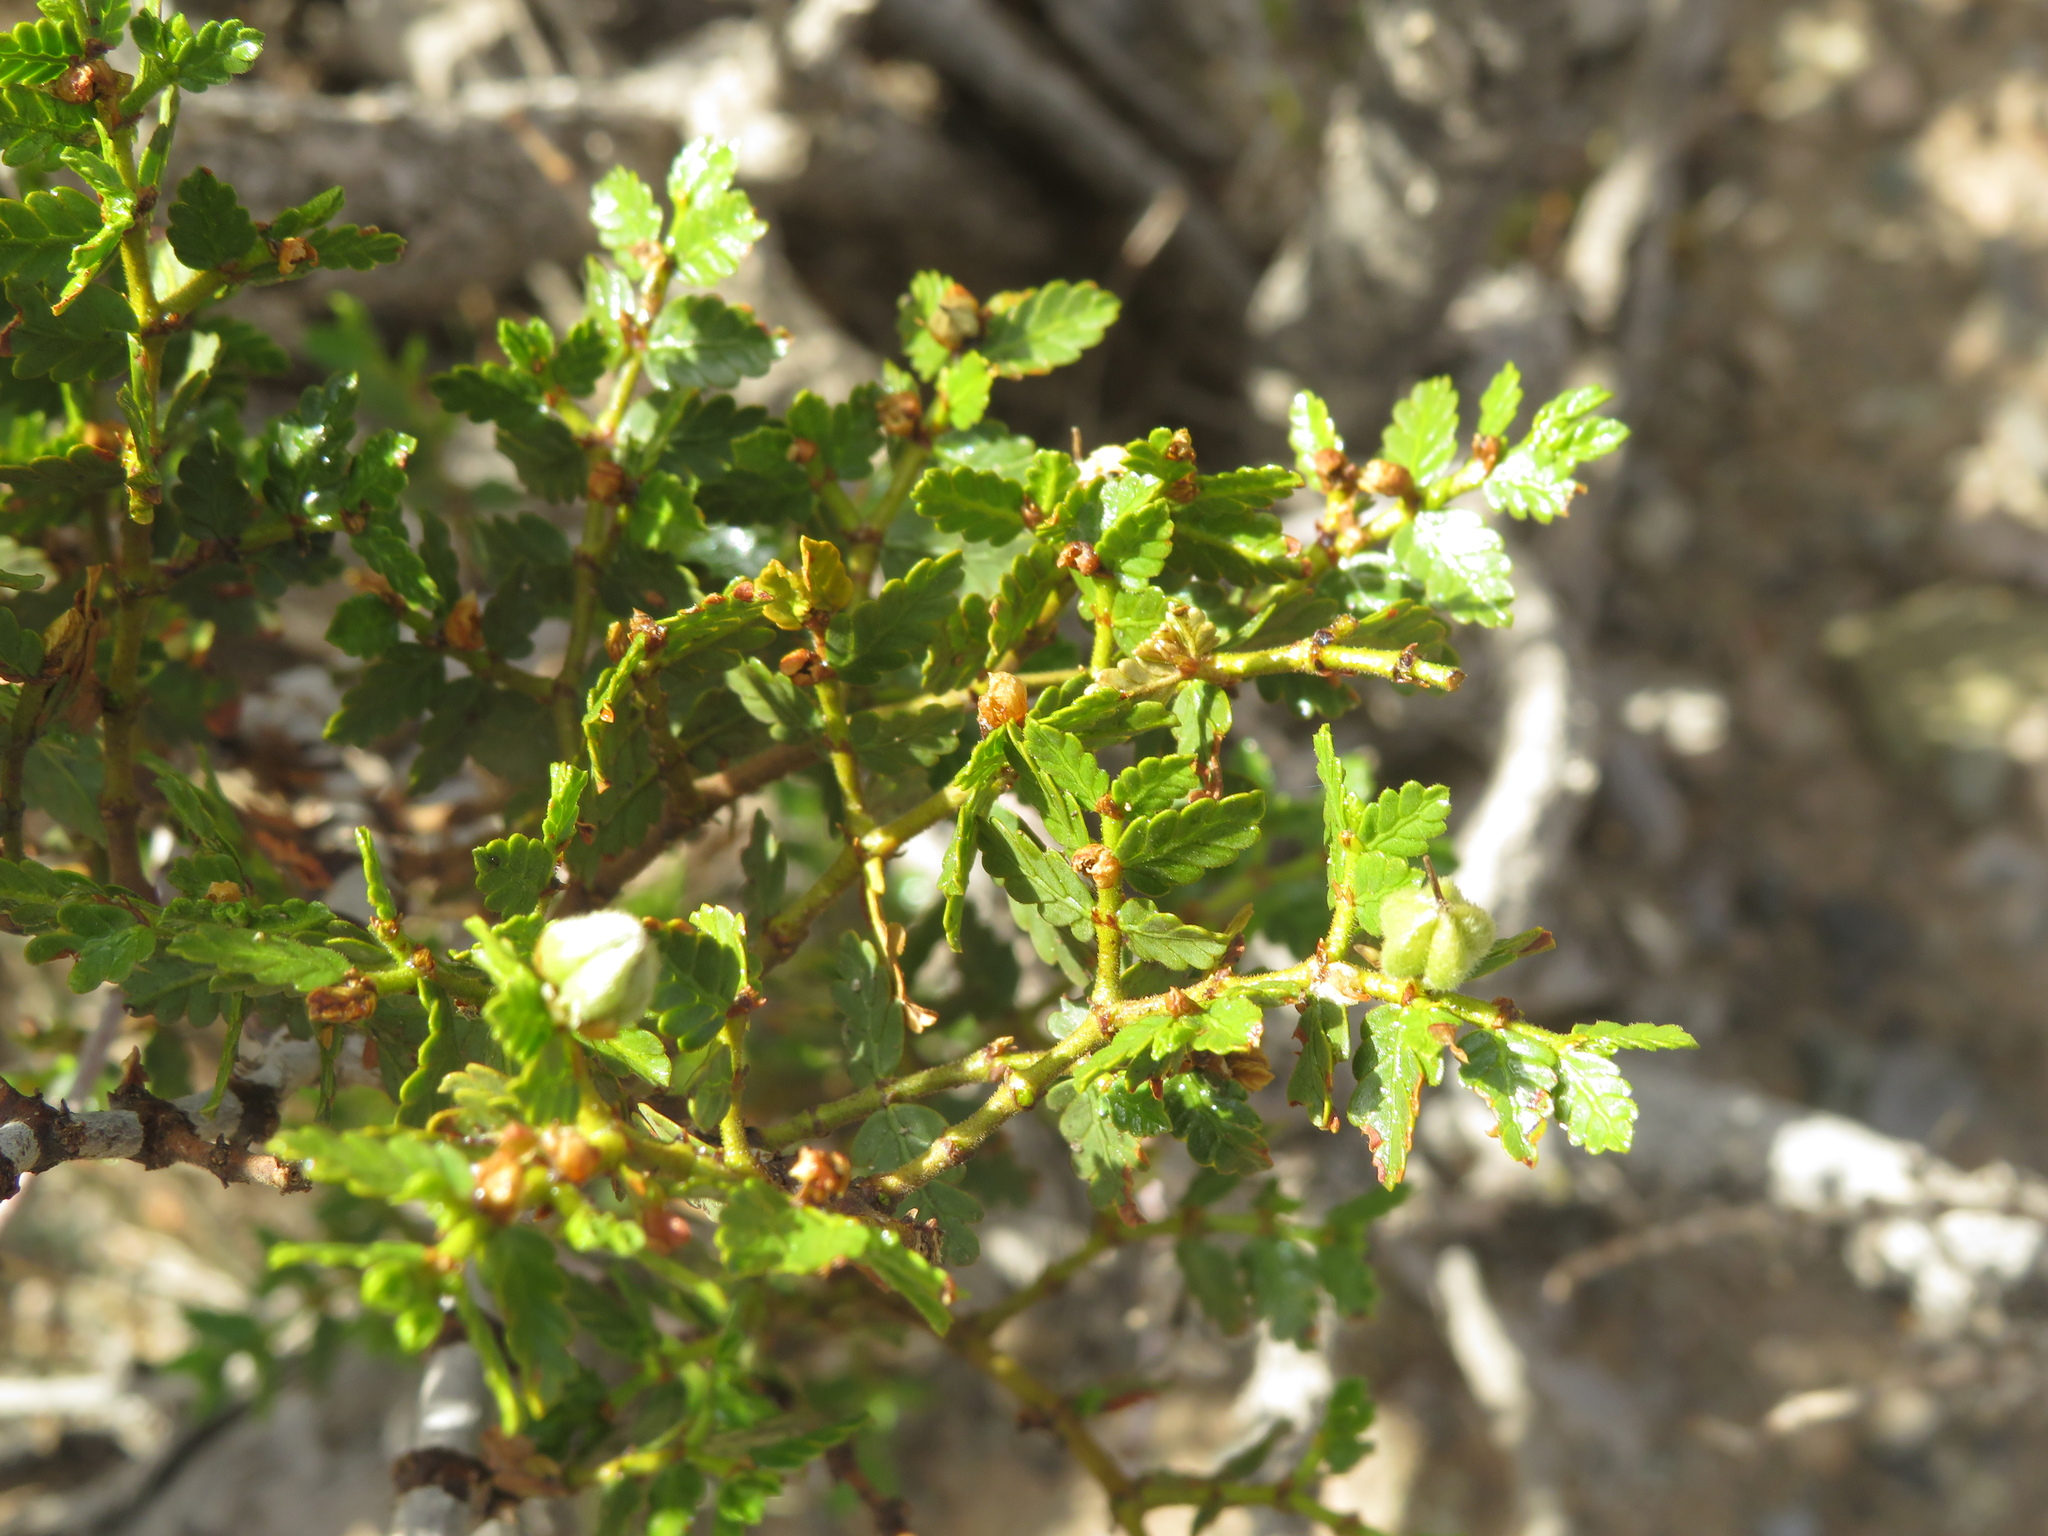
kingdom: Plantae
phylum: Tracheophyta
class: Magnoliopsida
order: Zygophyllales
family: Zygophyllaceae
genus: Larrea
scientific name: Larrea nitida
